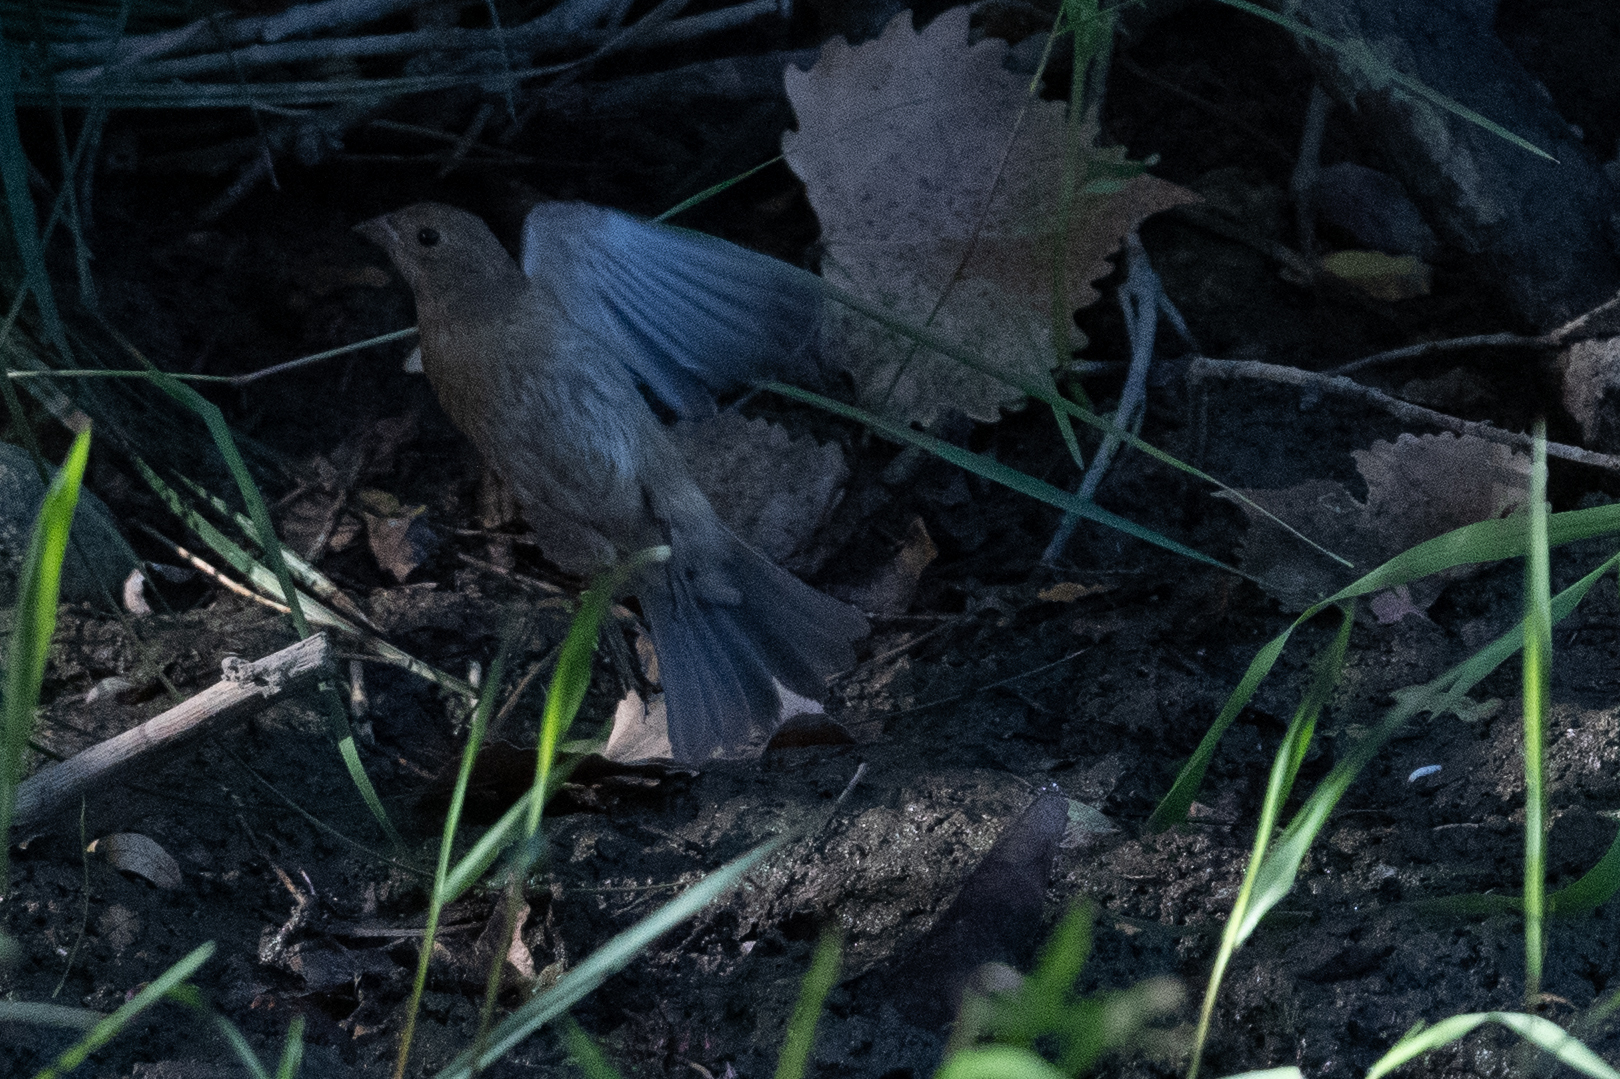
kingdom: Animalia
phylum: Chordata
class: Aves
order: Passeriformes
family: Fringillidae
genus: Haemorhous
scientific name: Haemorhous mexicanus
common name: House finch
